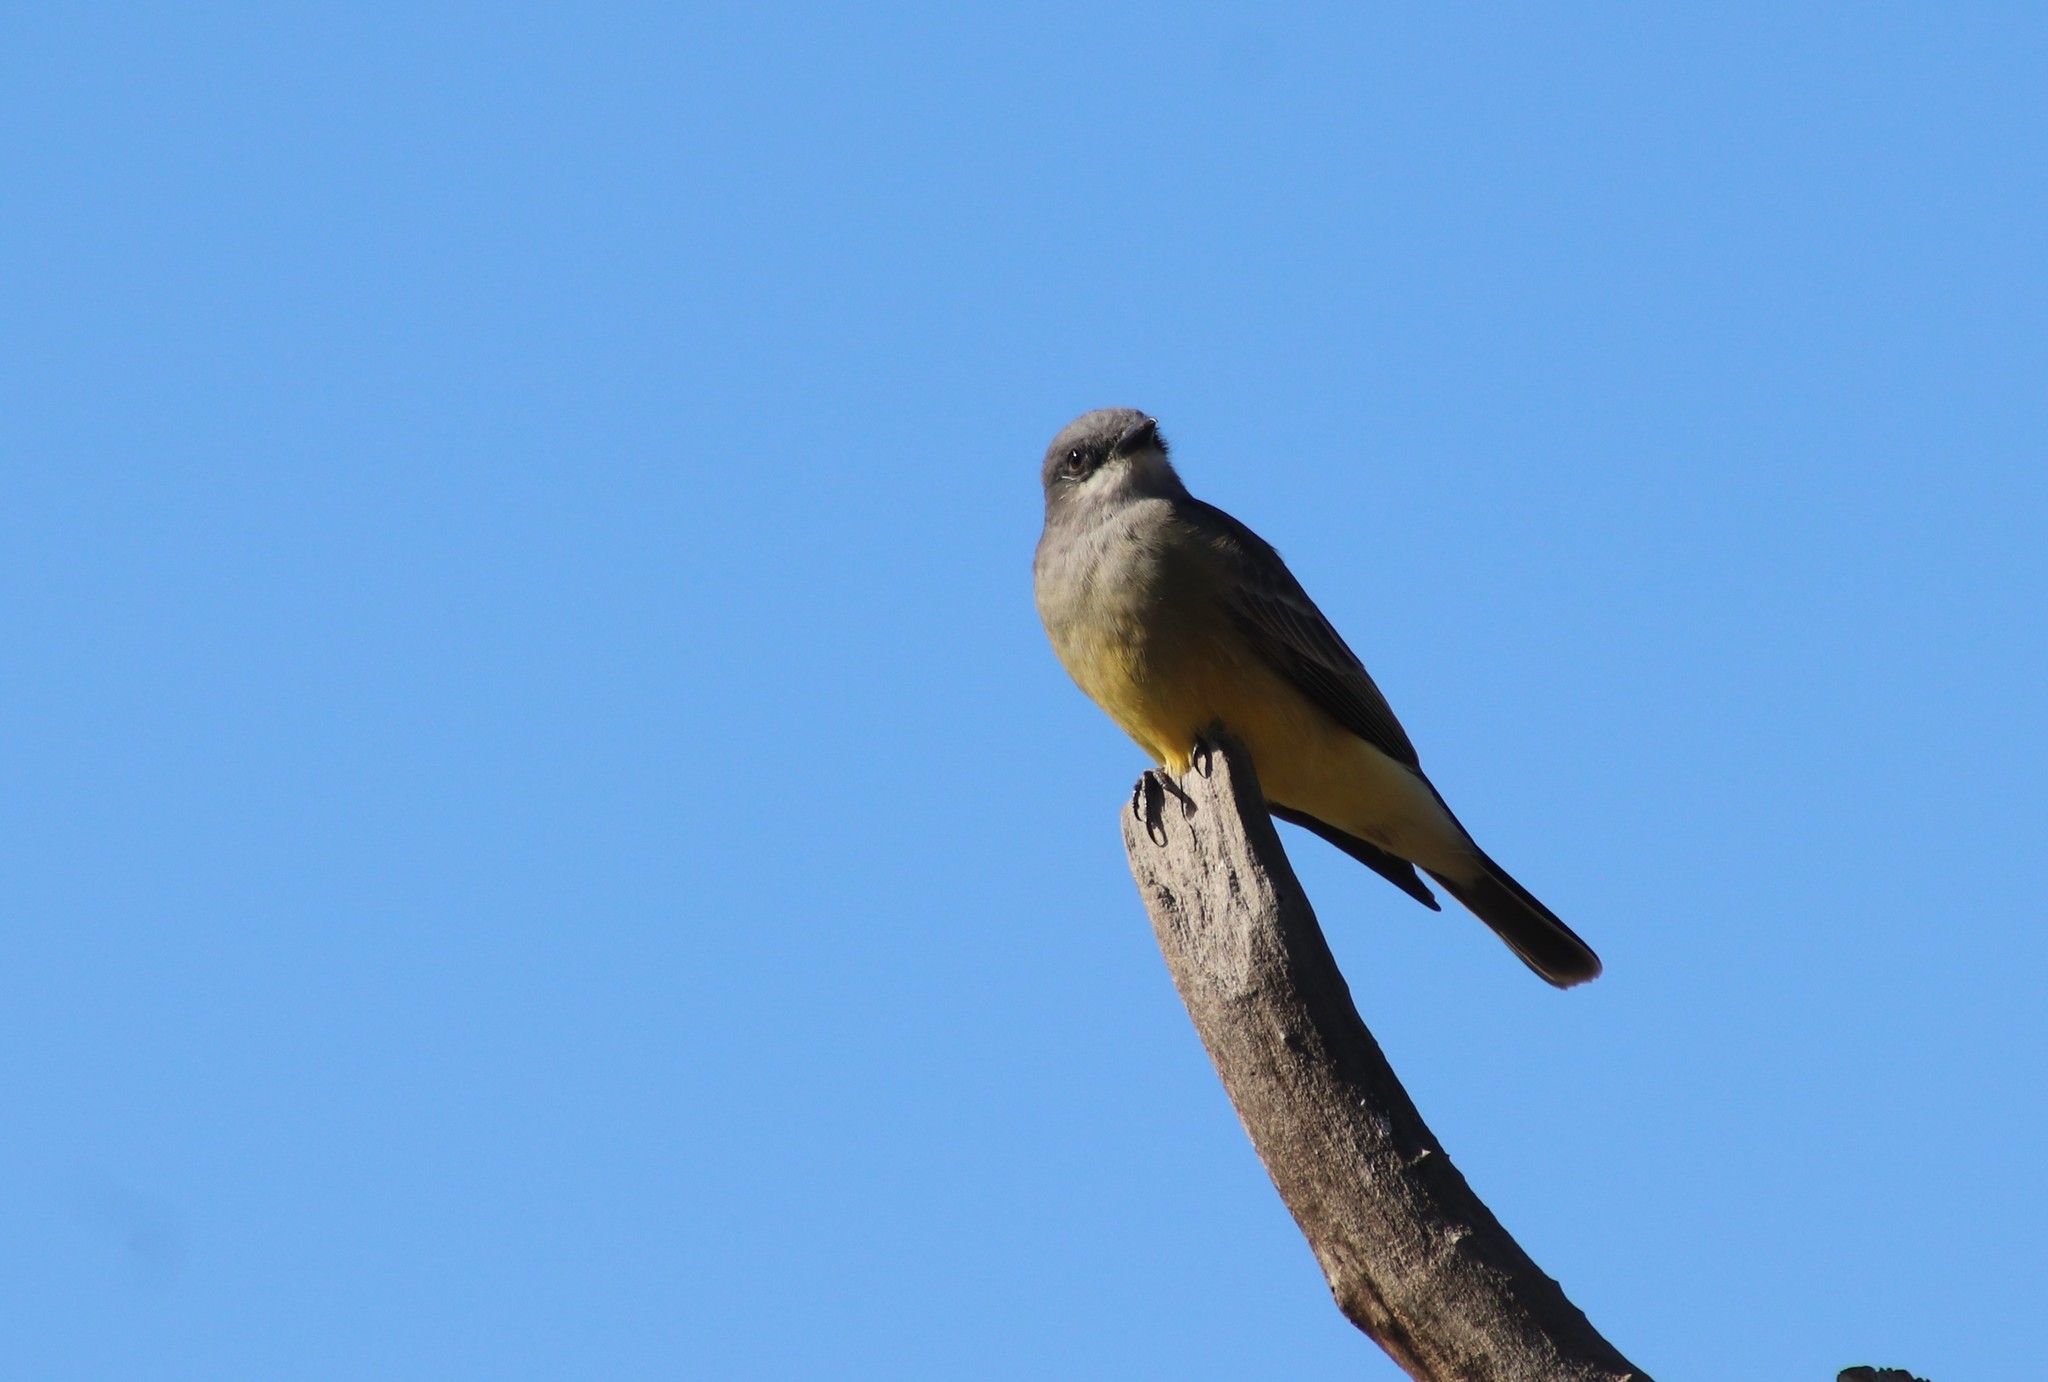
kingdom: Animalia
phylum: Chordata
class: Aves
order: Passeriformes
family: Tyrannidae
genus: Tyrannus
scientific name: Tyrannus vociferans
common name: Cassin's kingbird
